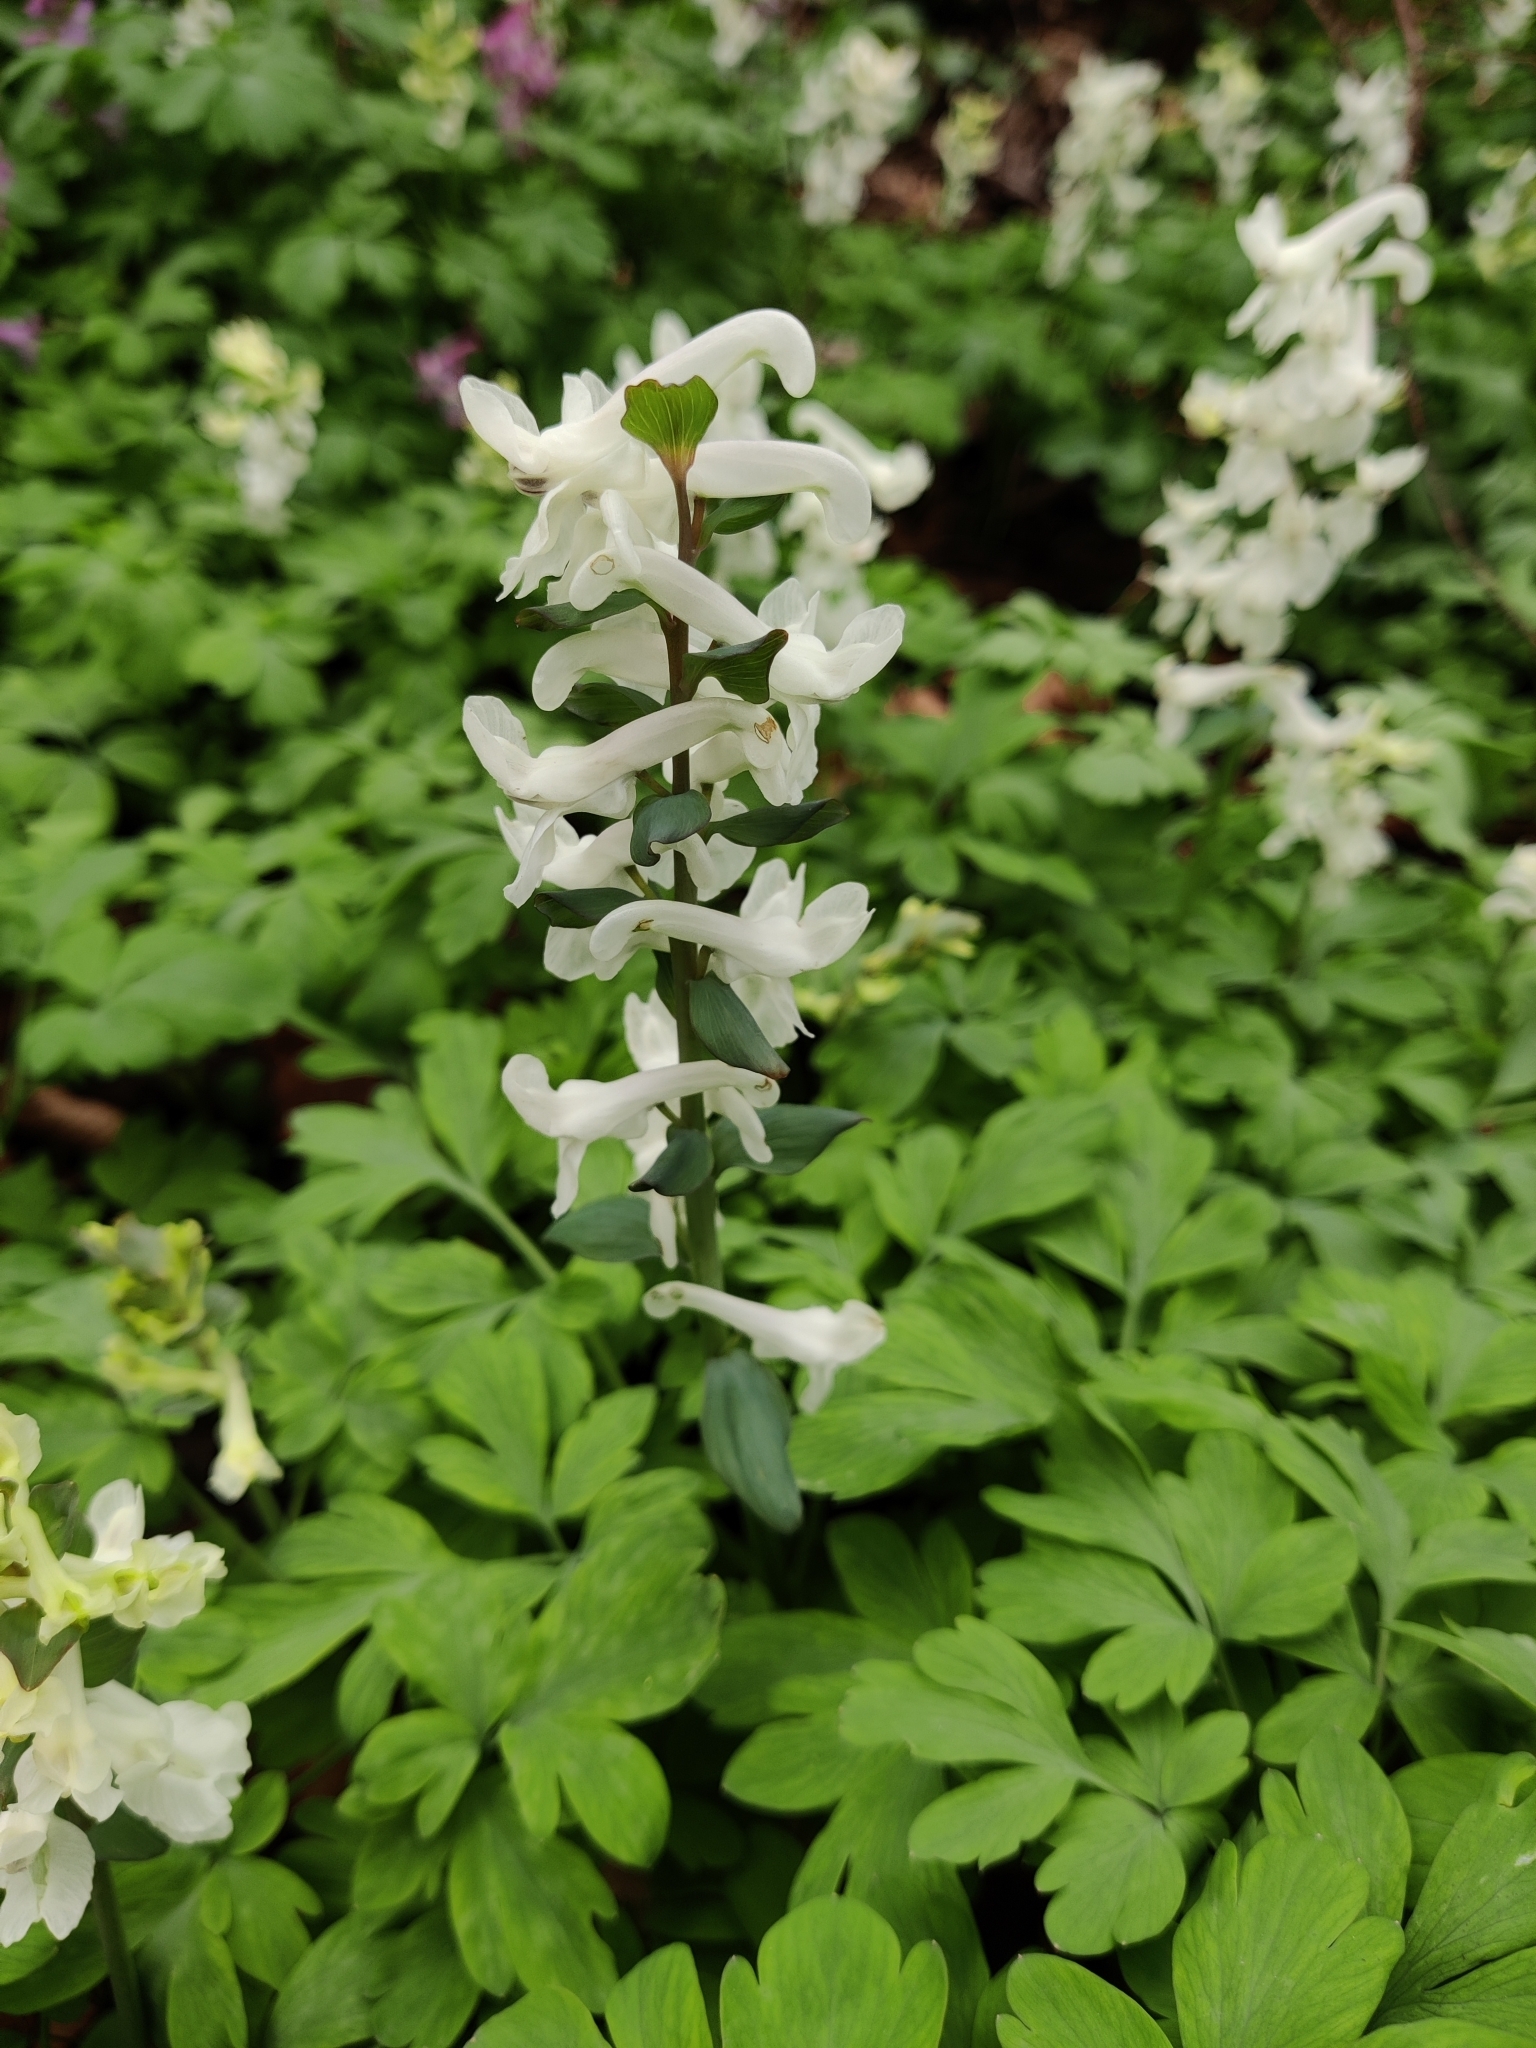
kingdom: Plantae
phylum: Tracheophyta
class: Magnoliopsida
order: Ranunculales
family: Papaveraceae
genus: Corydalis
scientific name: Corydalis cava
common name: Hollowroot
